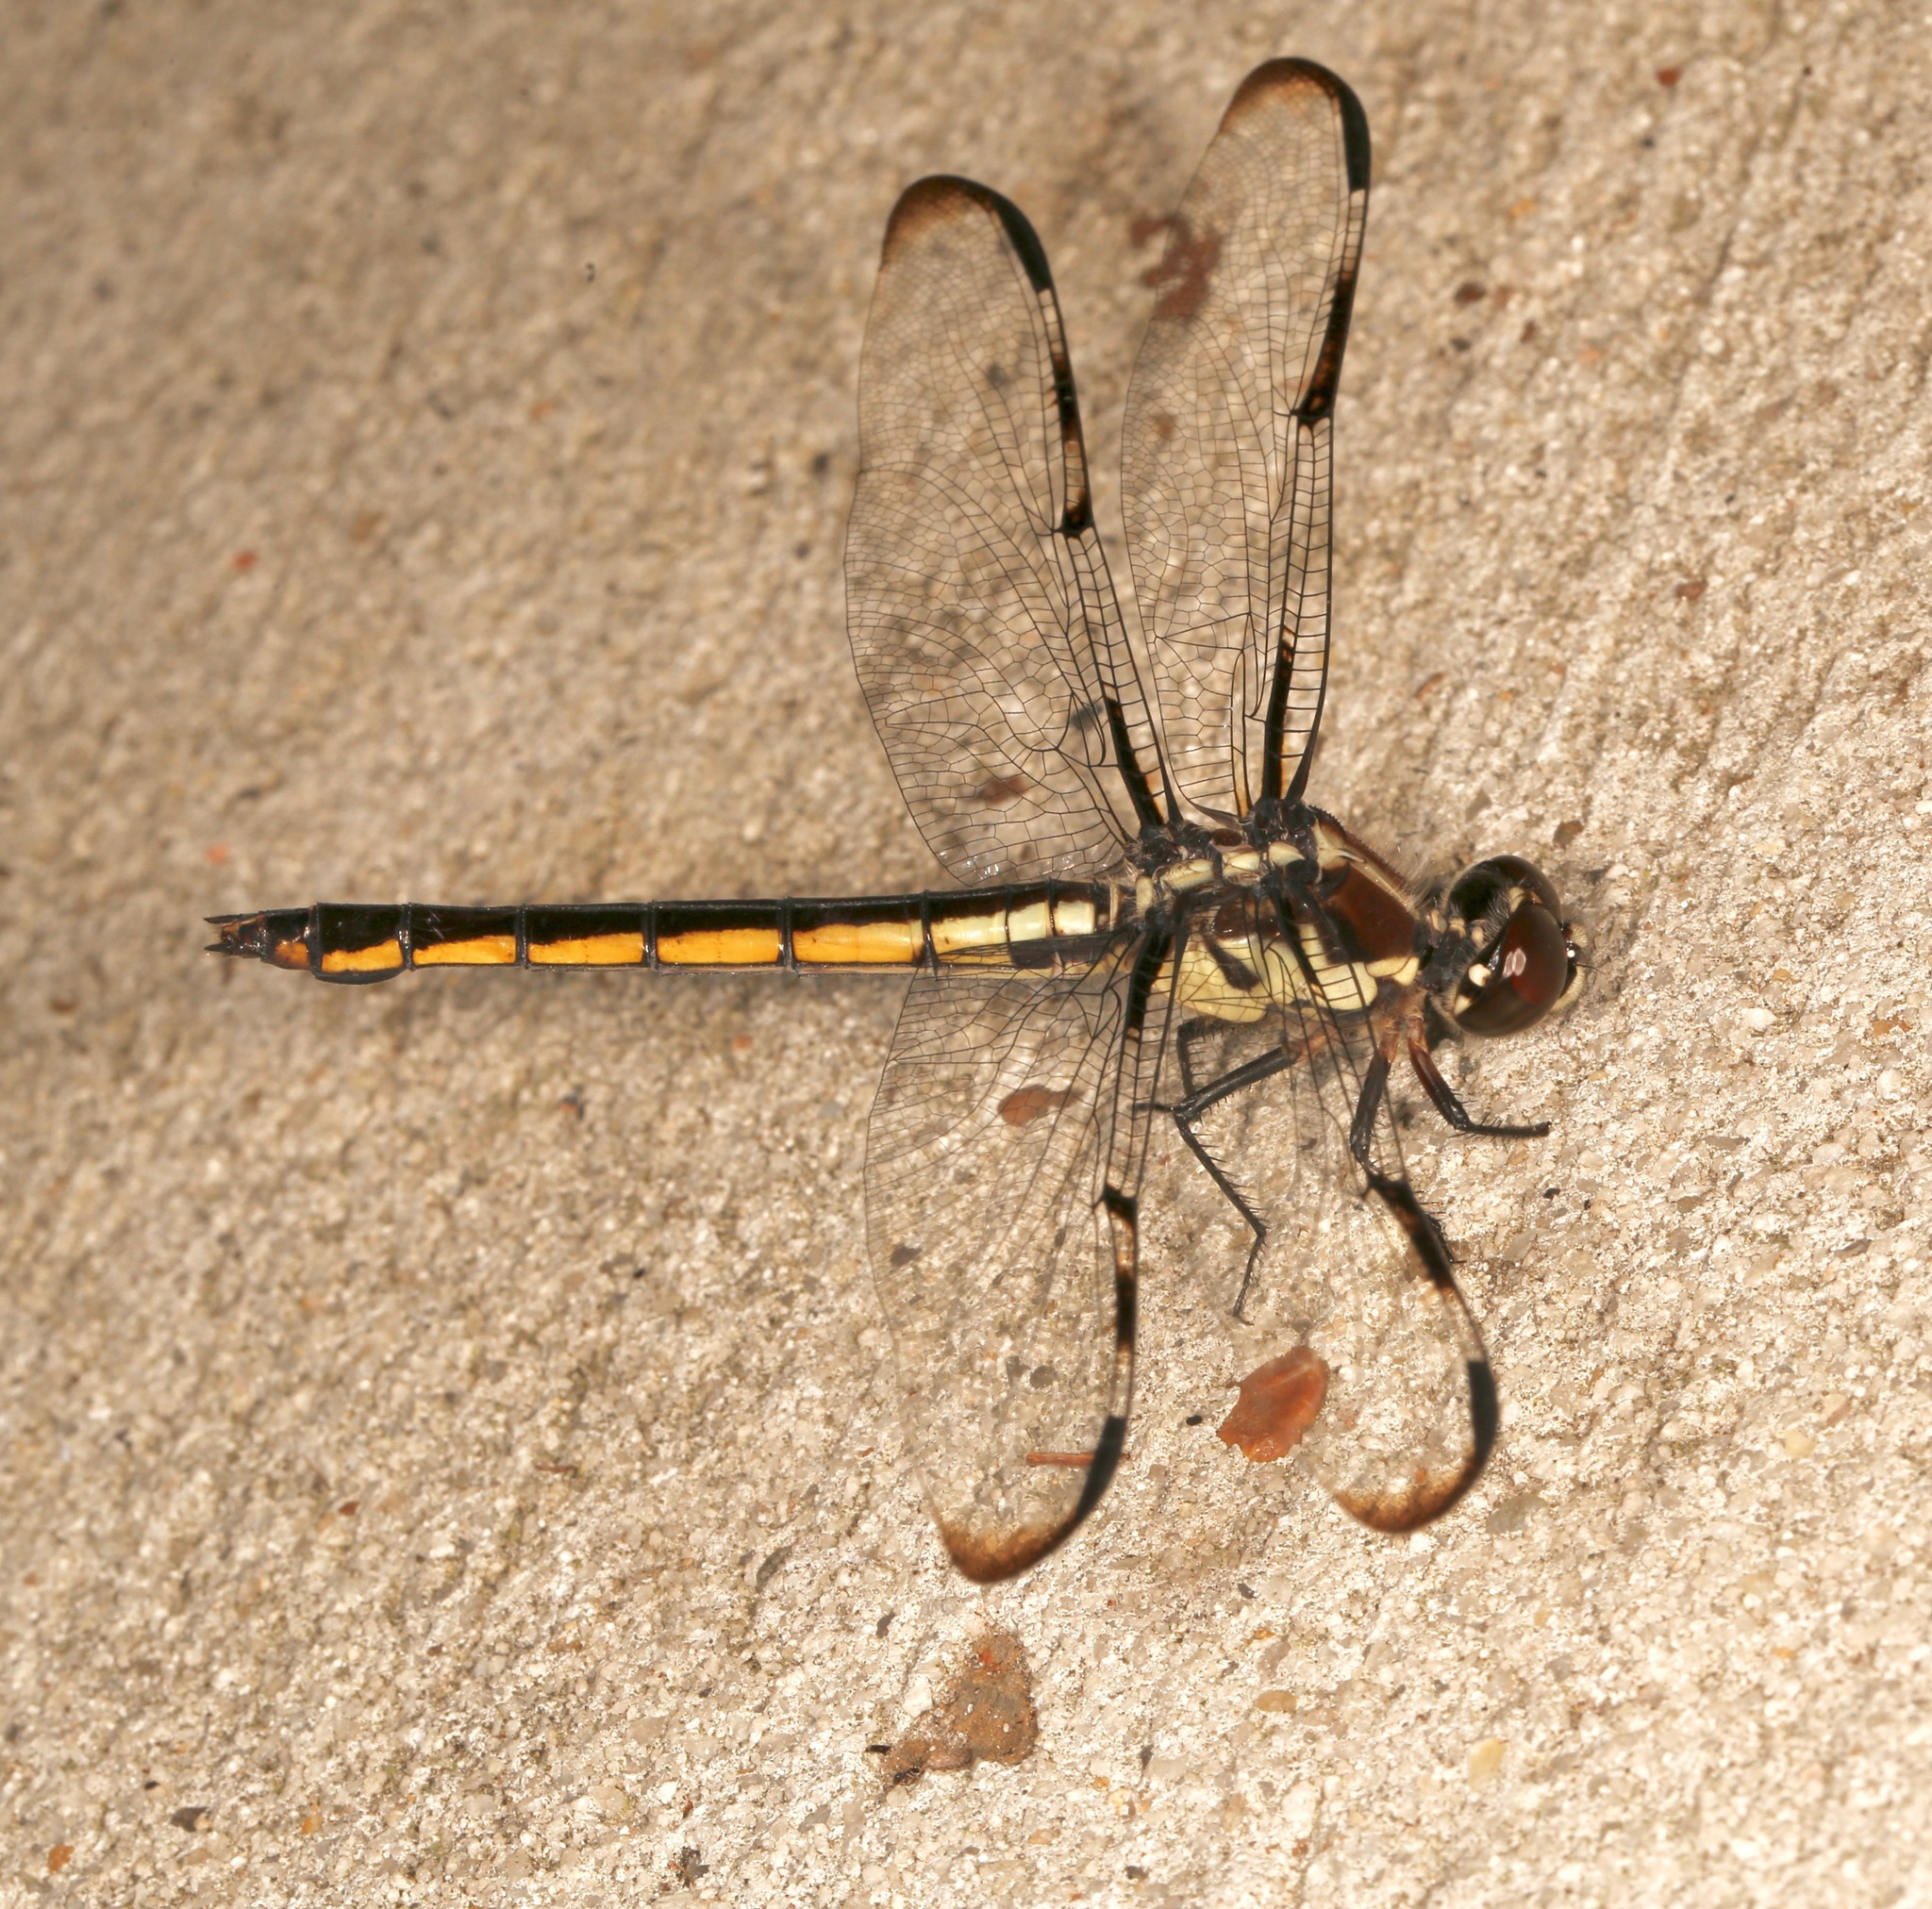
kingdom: Animalia
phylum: Arthropoda
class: Insecta
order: Odonata
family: Libellulidae
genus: Libellula
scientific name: Libellula axilena
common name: Bar-winged skimmer
